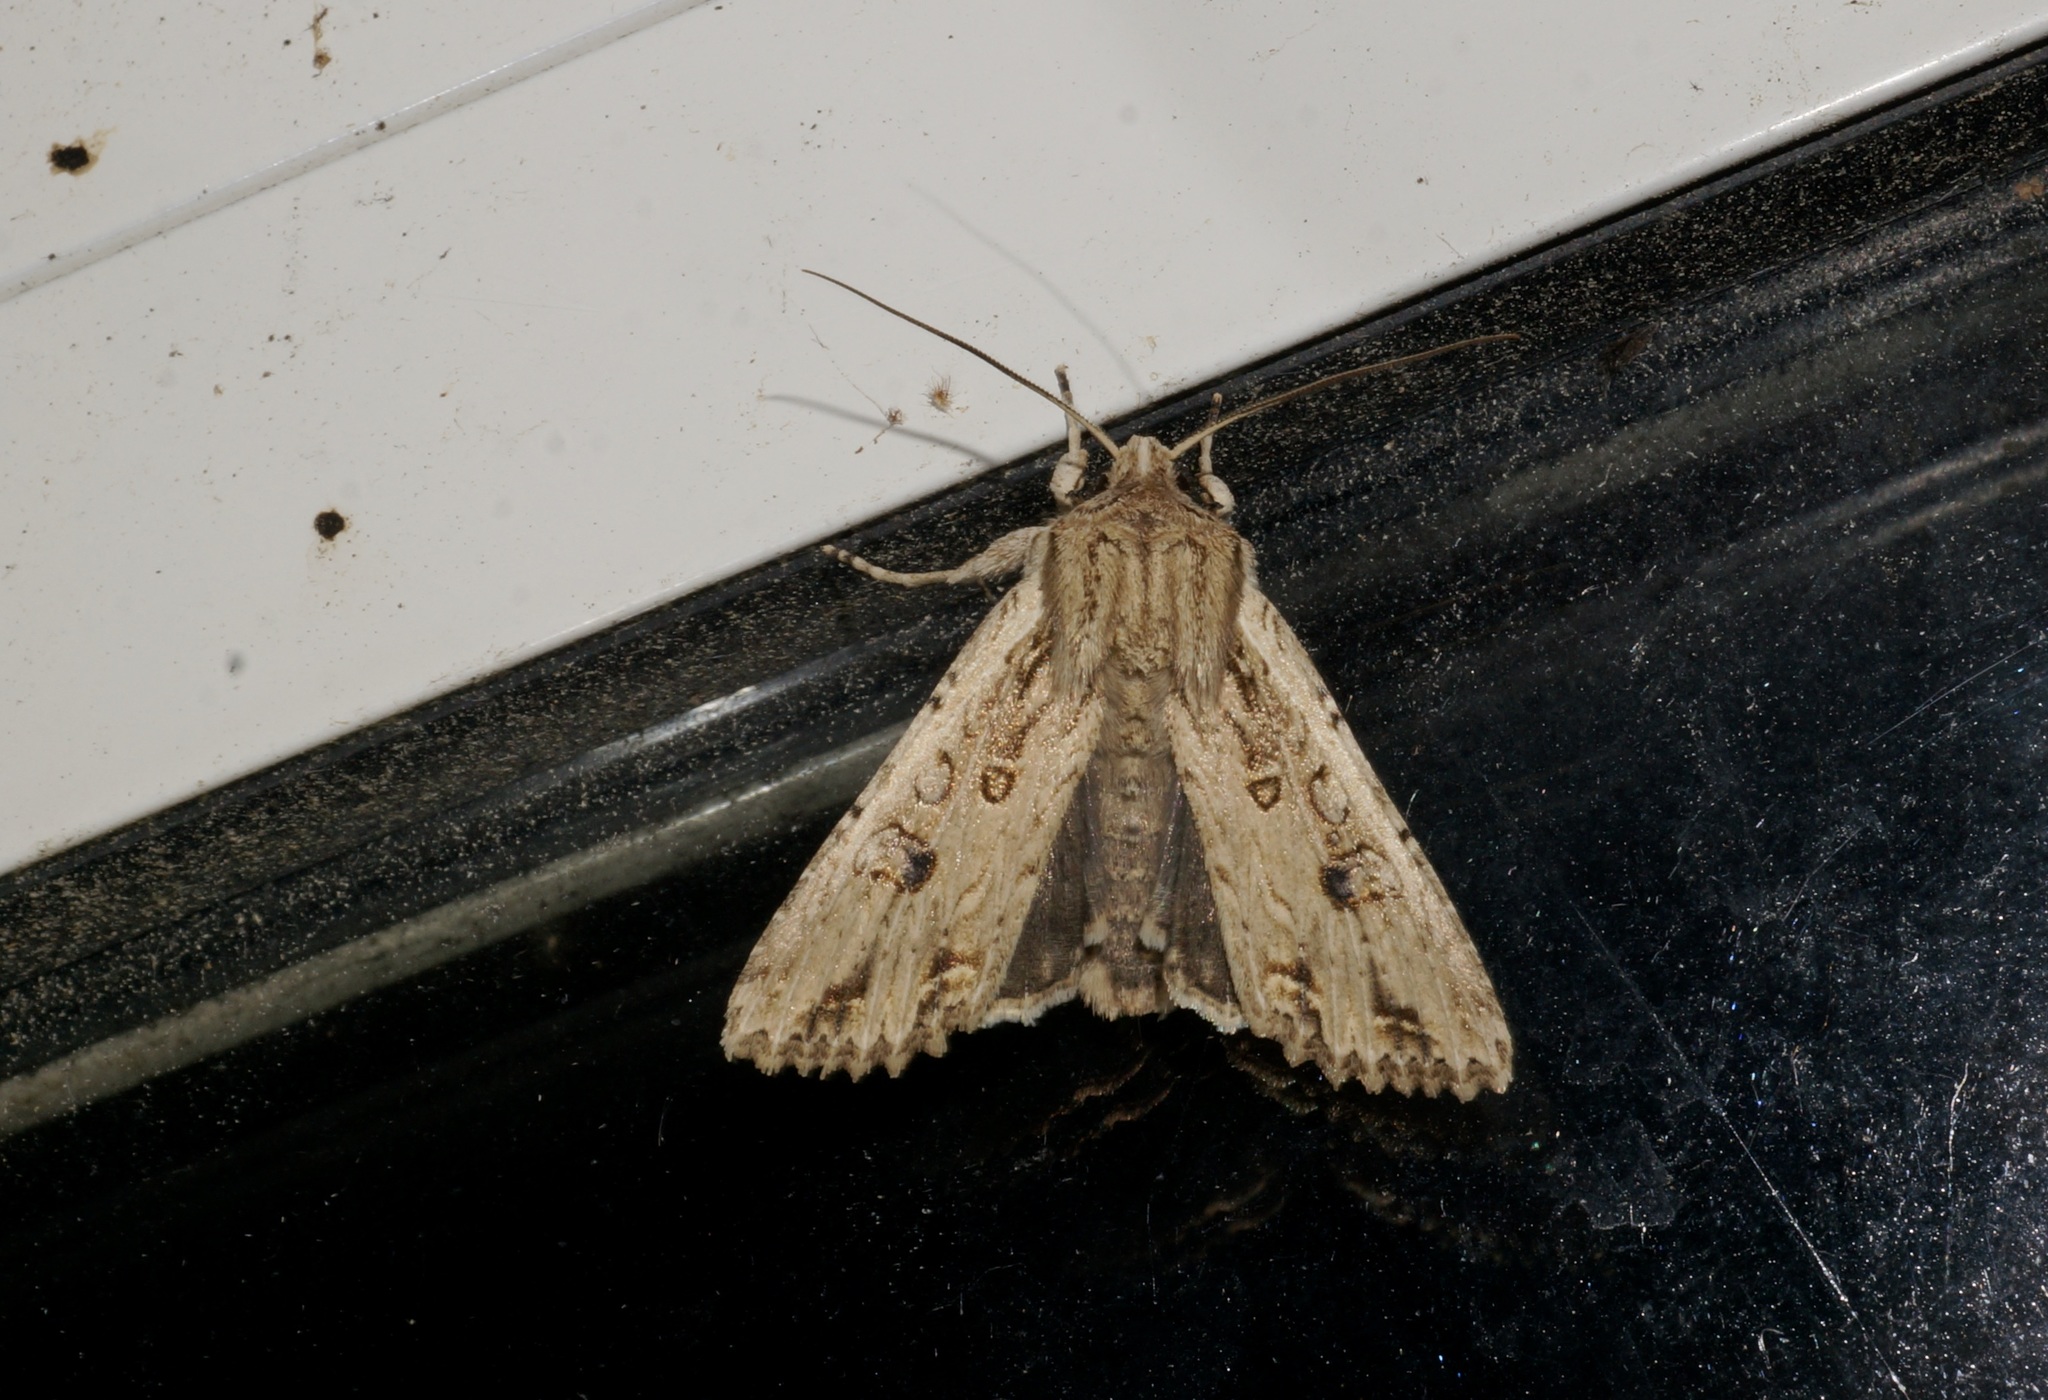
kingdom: Animalia
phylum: Arthropoda
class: Insecta
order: Lepidoptera
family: Noctuidae
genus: Ichneutica
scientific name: Ichneutica lignana
